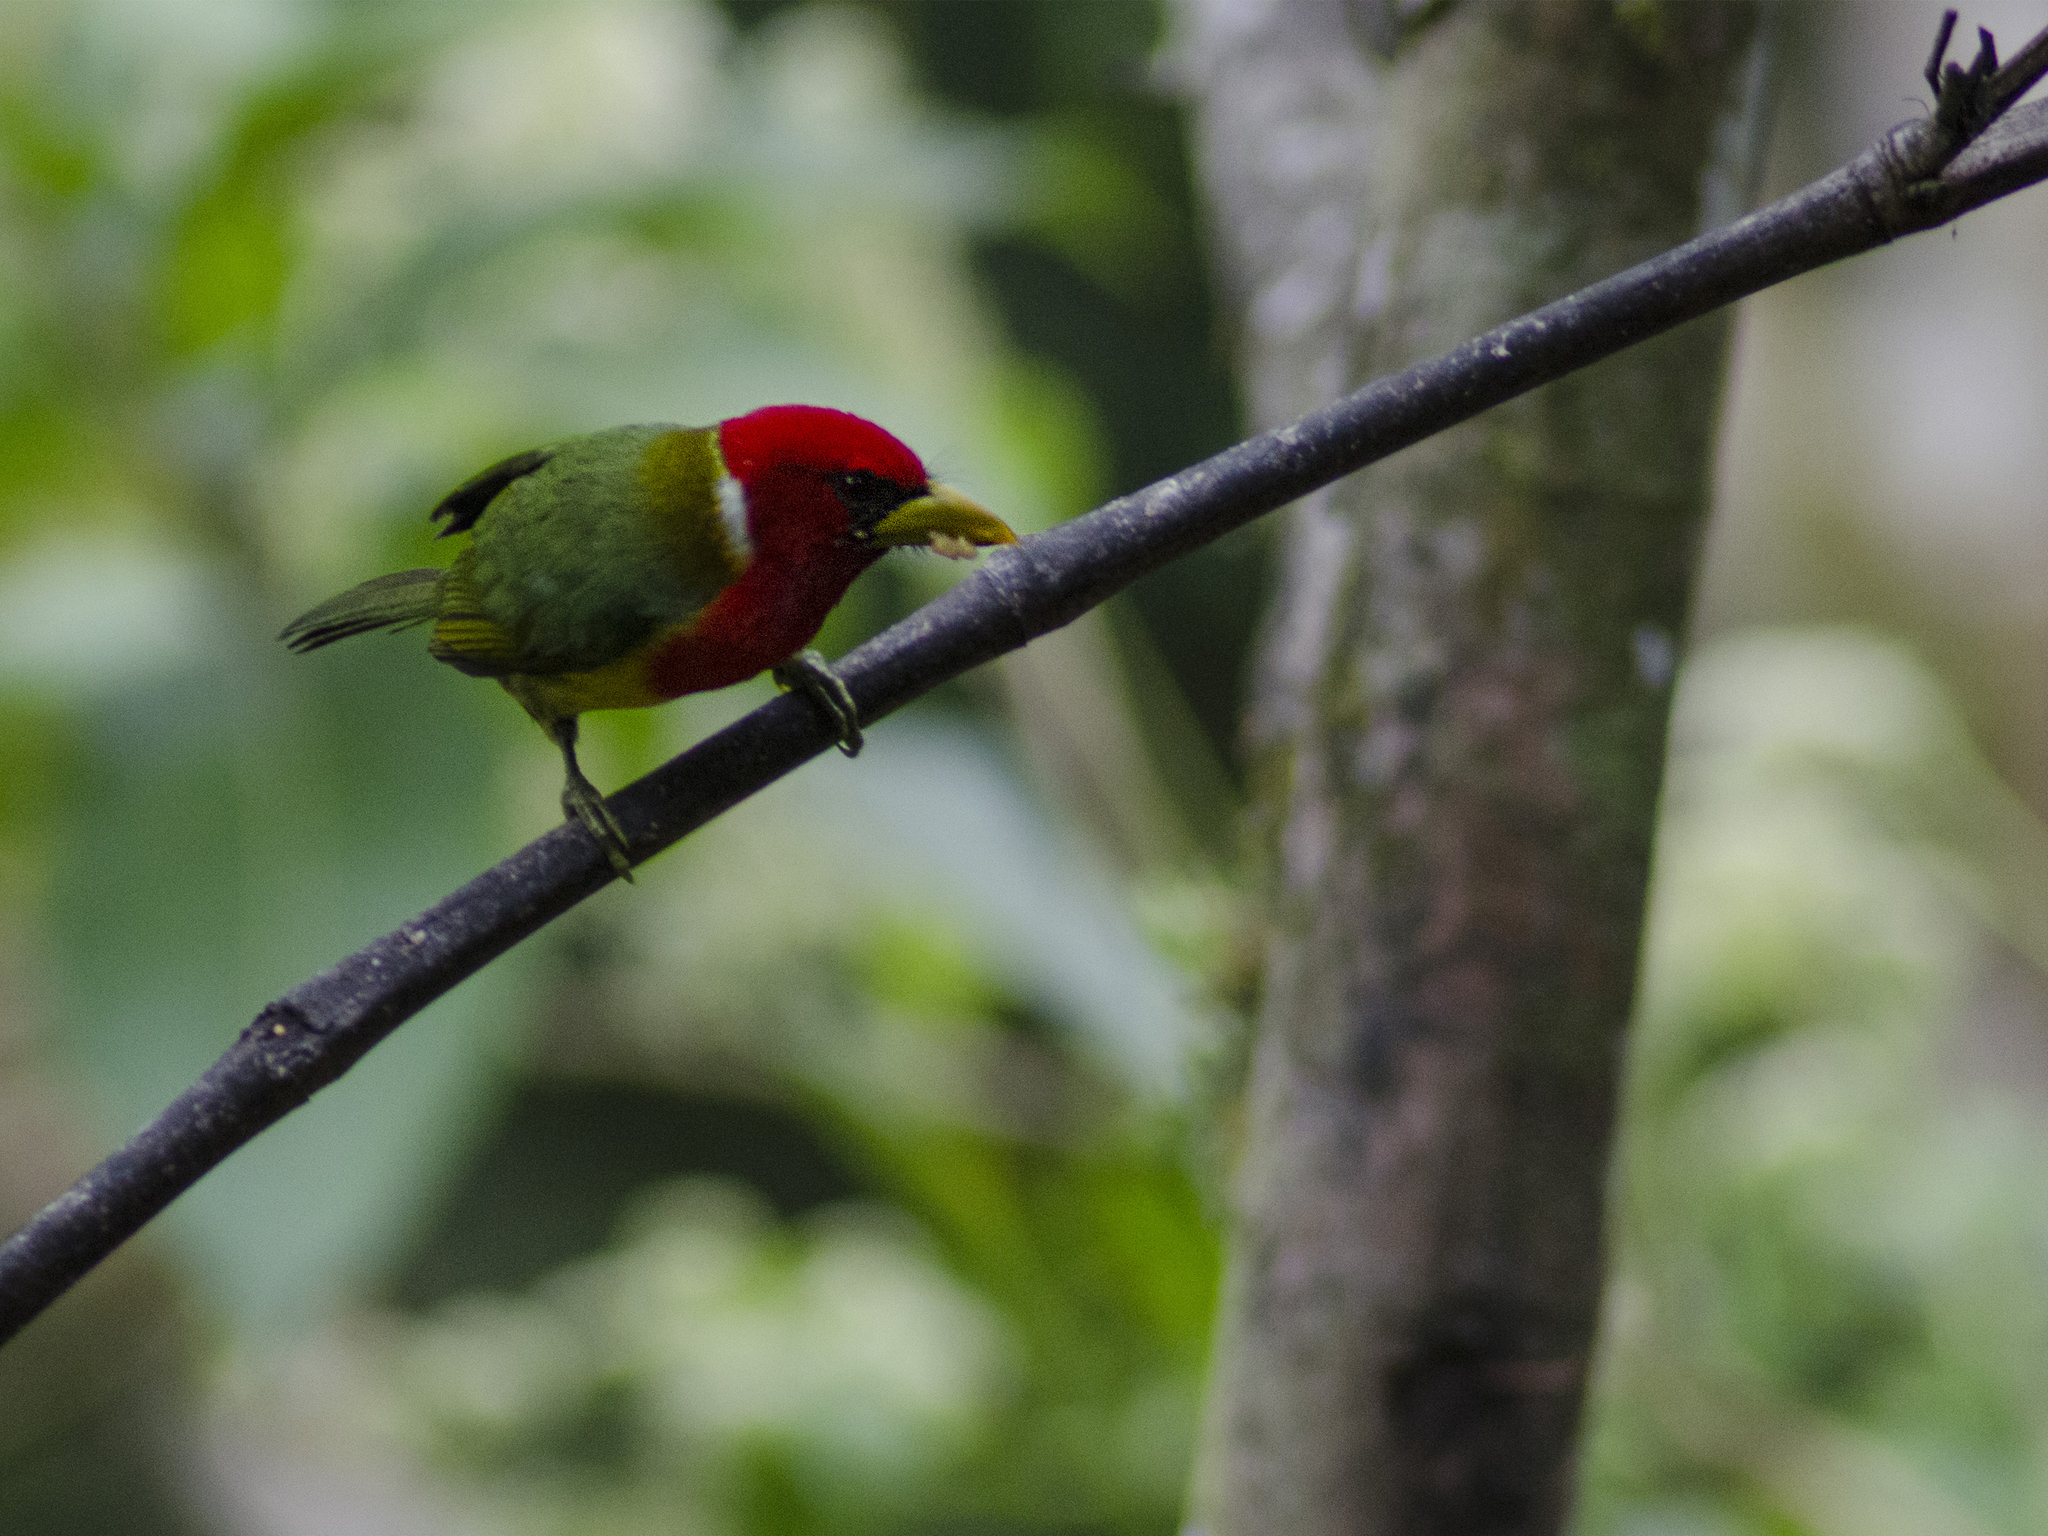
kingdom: Animalia
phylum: Chordata
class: Aves
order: Piciformes
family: Capitonidae
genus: Eubucco
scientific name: Eubucco bourcierii
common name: Red-headed barbet
